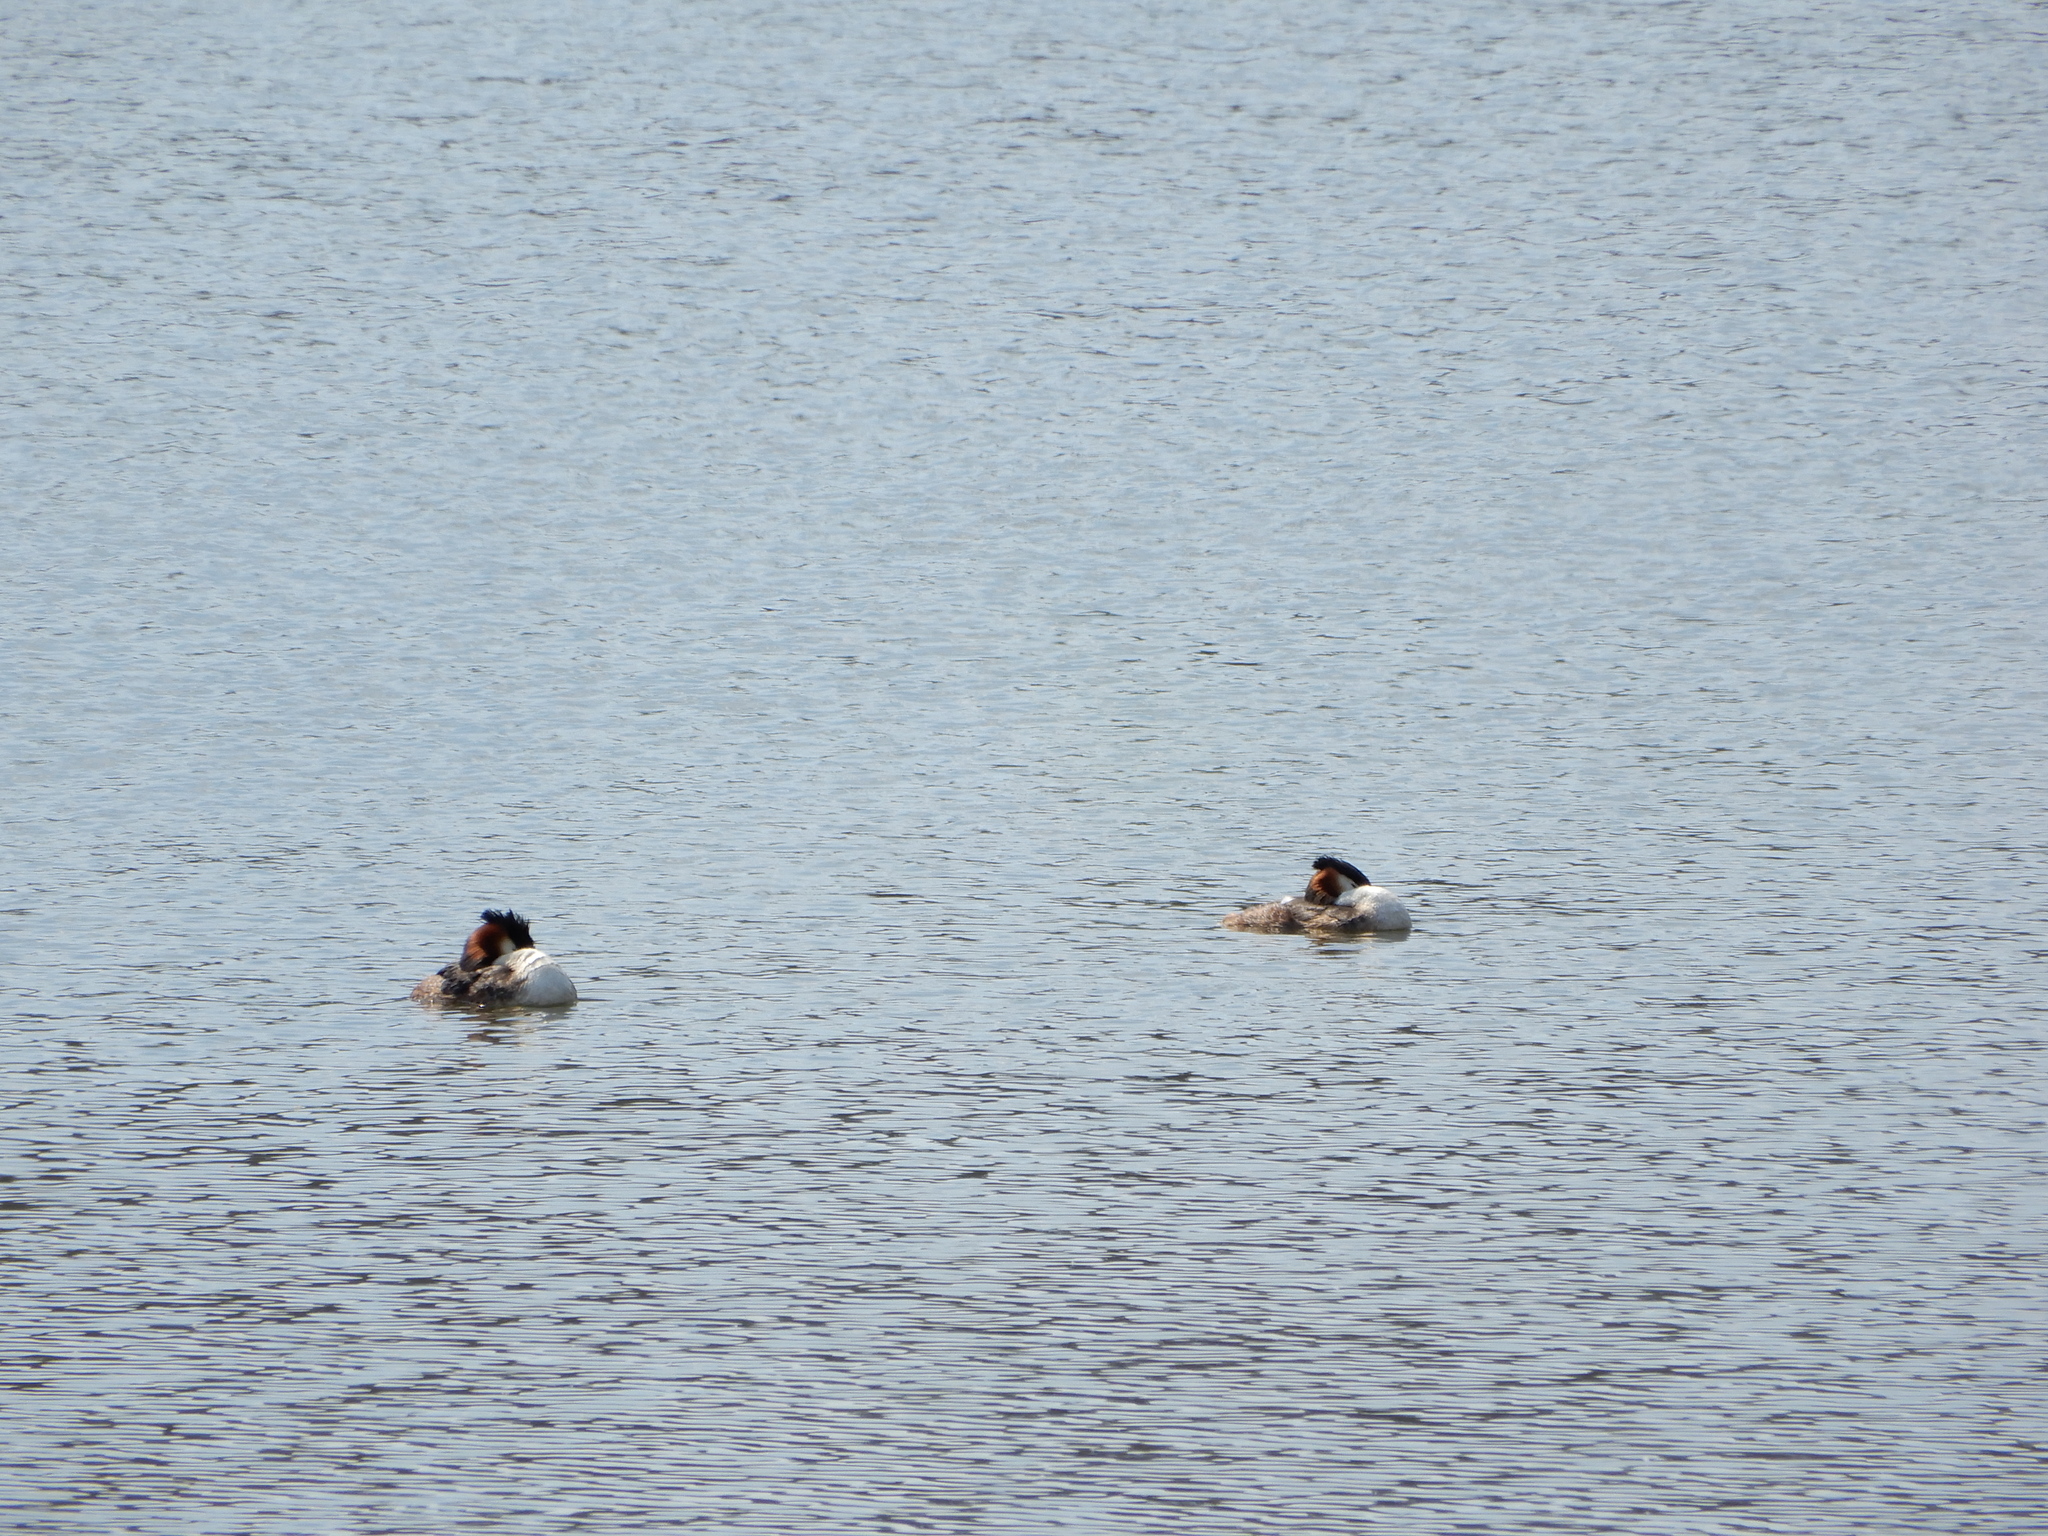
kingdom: Animalia
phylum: Chordata
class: Aves
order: Podicipediformes
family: Podicipedidae
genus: Podiceps
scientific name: Podiceps cristatus
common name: Great crested grebe
